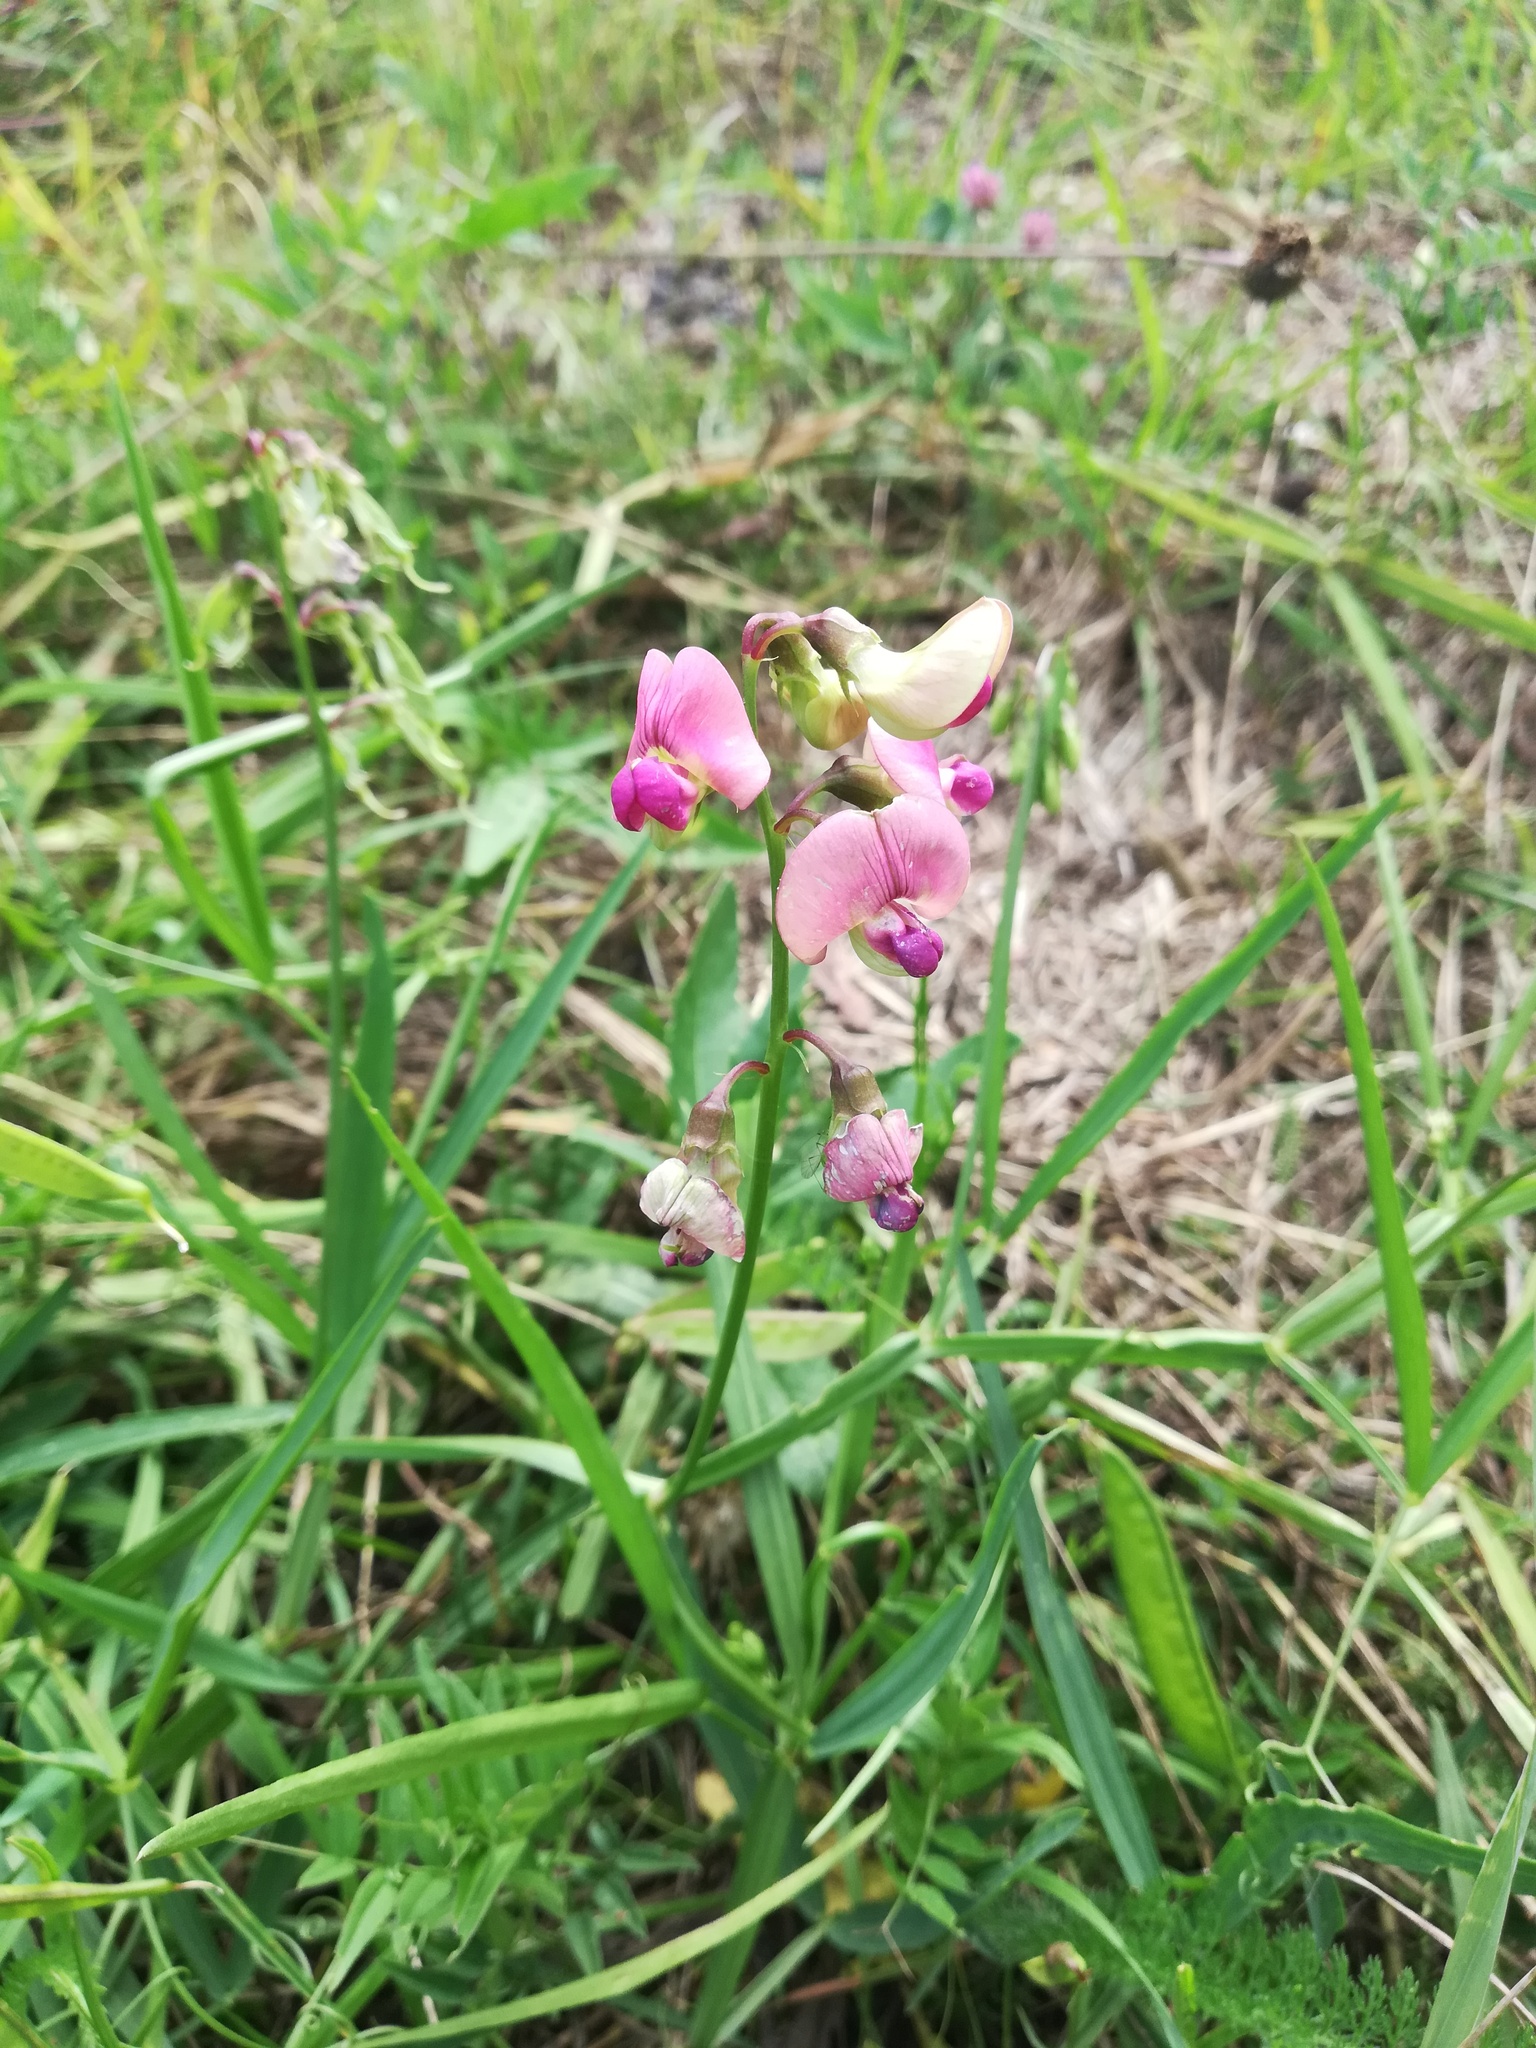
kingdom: Plantae
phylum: Tracheophyta
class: Magnoliopsida
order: Fabales
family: Fabaceae
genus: Lathyrus
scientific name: Lathyrus sylvestris
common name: Flat pea
